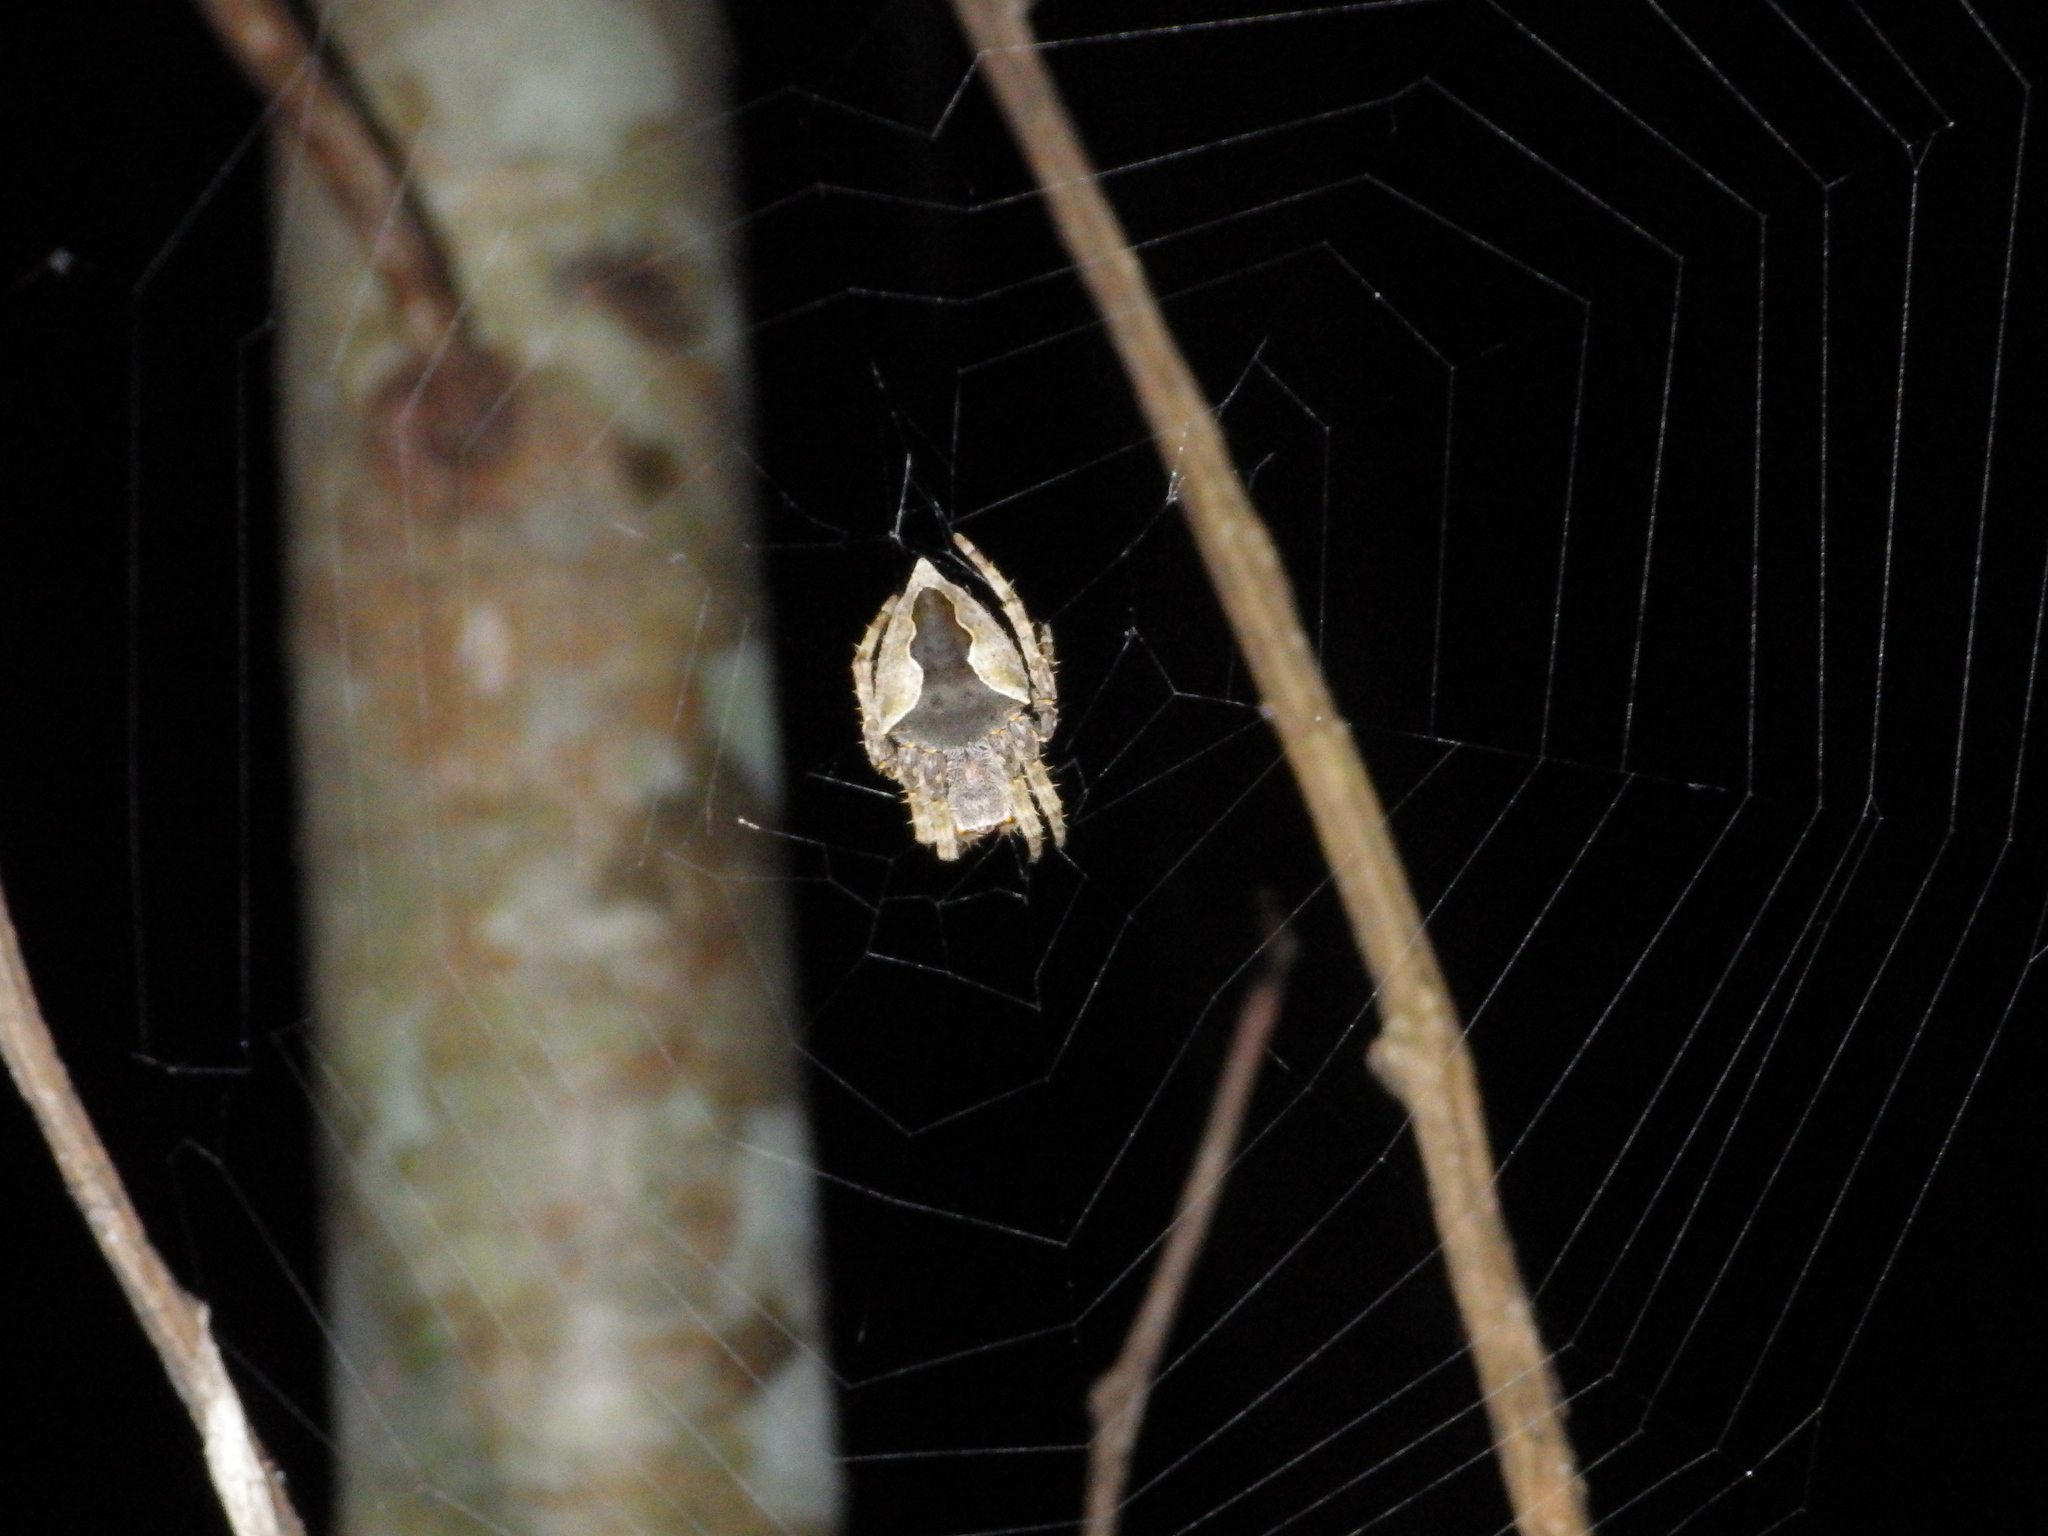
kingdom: Animalia
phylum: Arthropoda
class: Arachnida
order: Araneae
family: Araneidae
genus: Parawixia
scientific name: Parawixia dehaani
